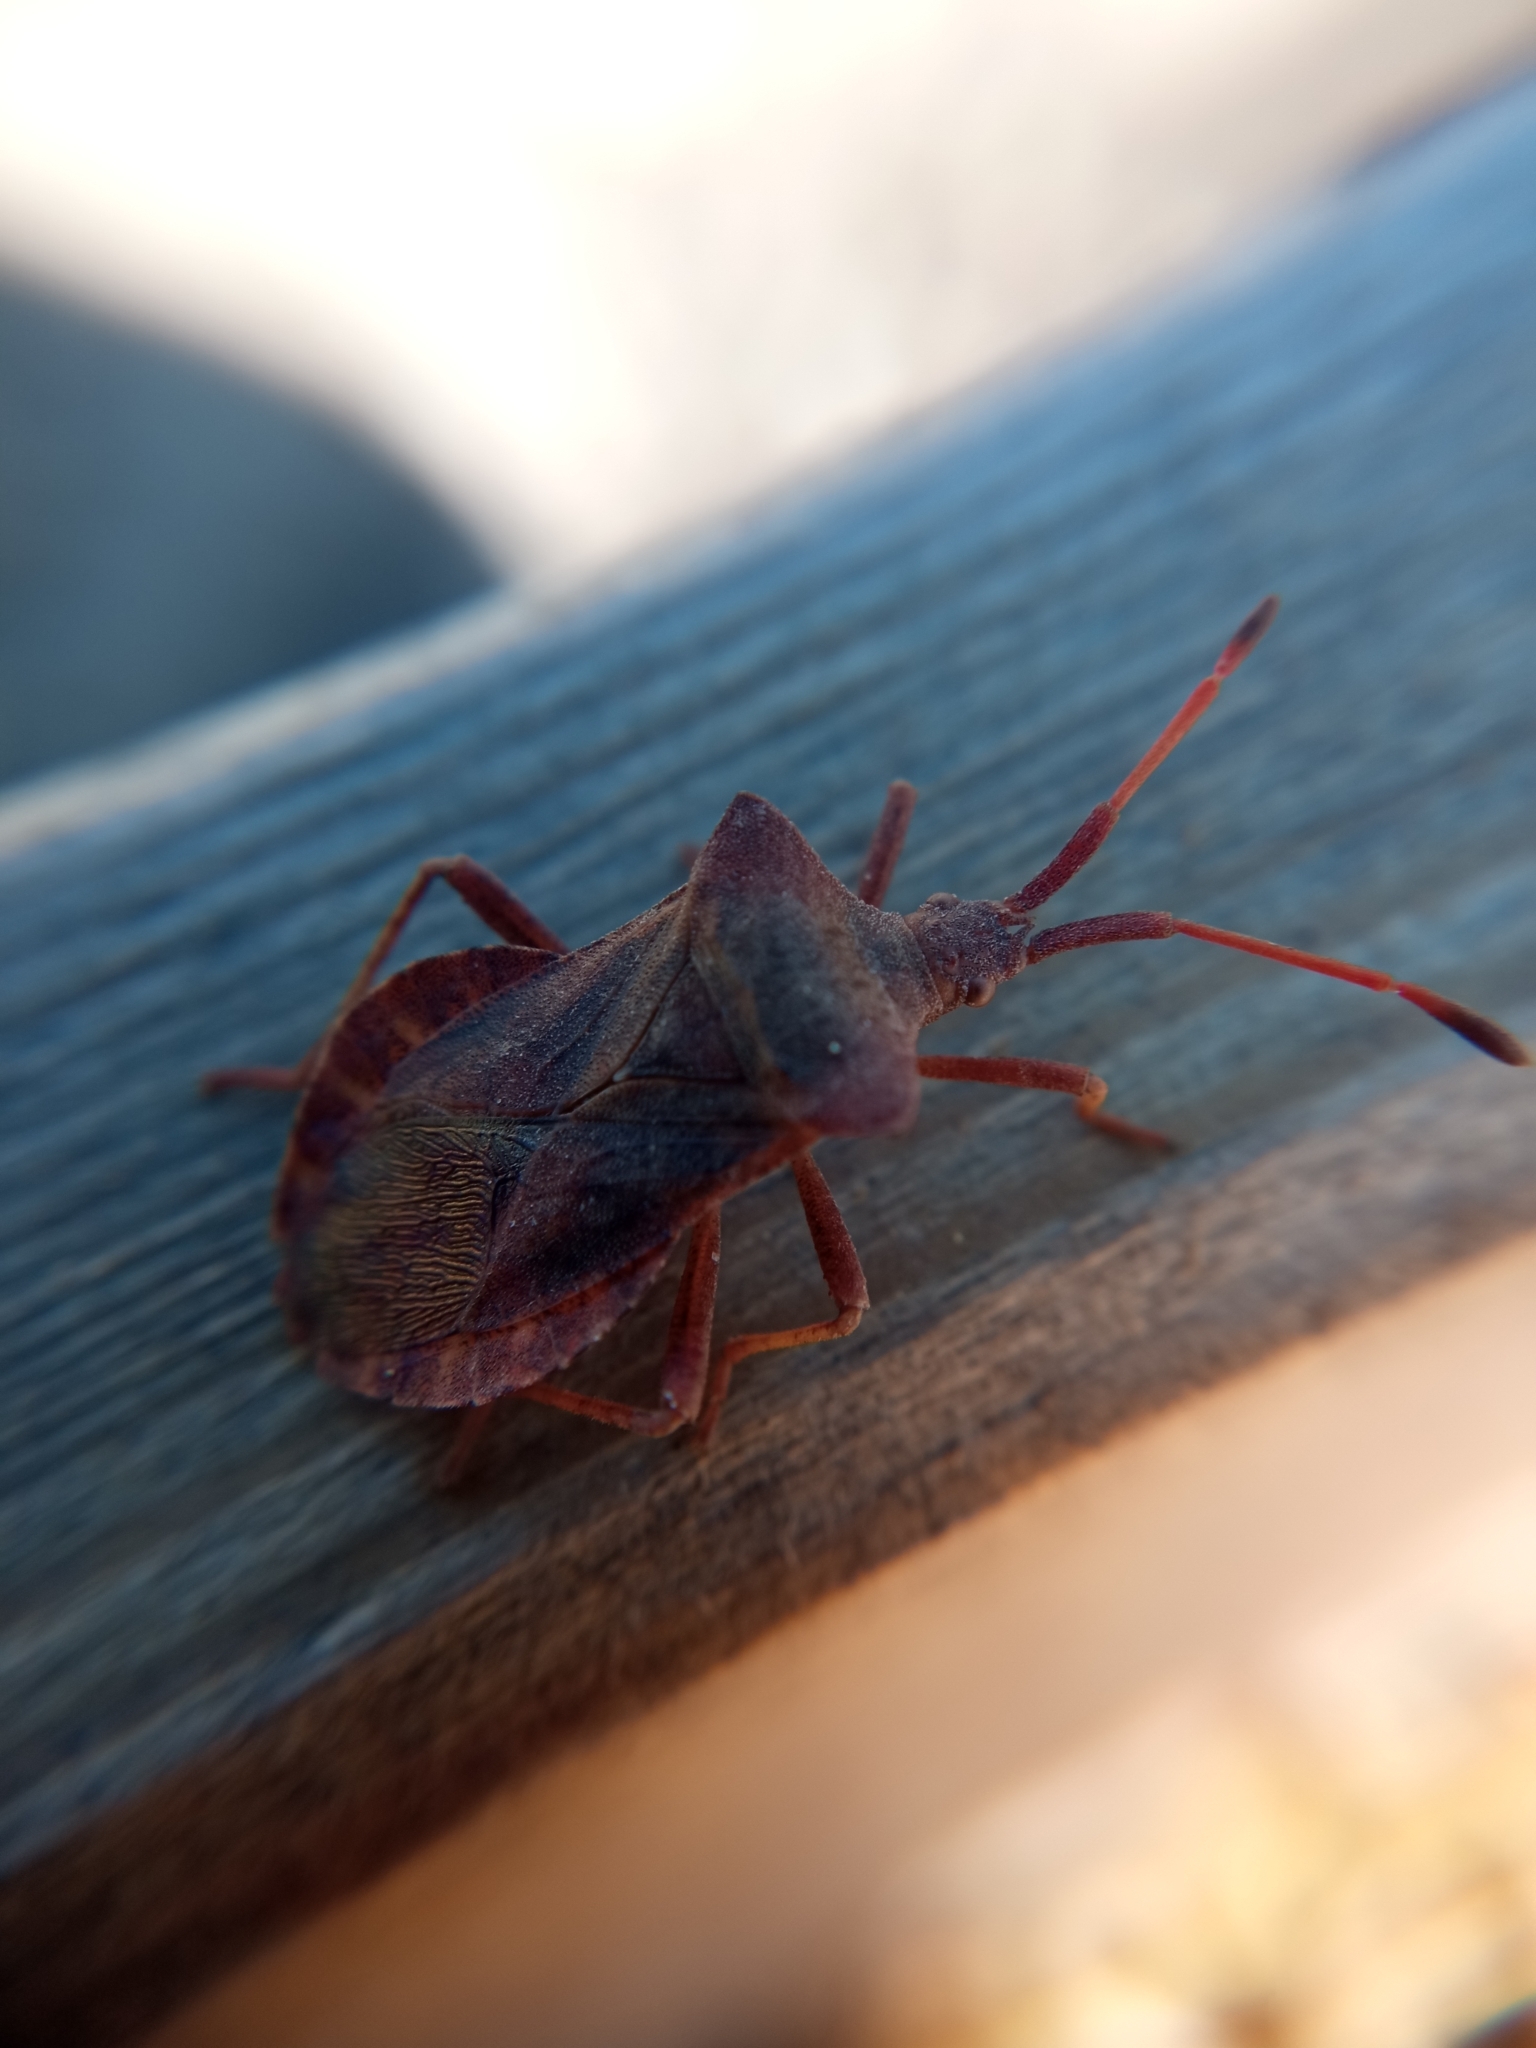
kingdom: Animalia
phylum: Arthropoda
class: Insecta
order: Hemiptera
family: Coreidae
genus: Coreus
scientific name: Coreus marginatus
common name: Dock bug
